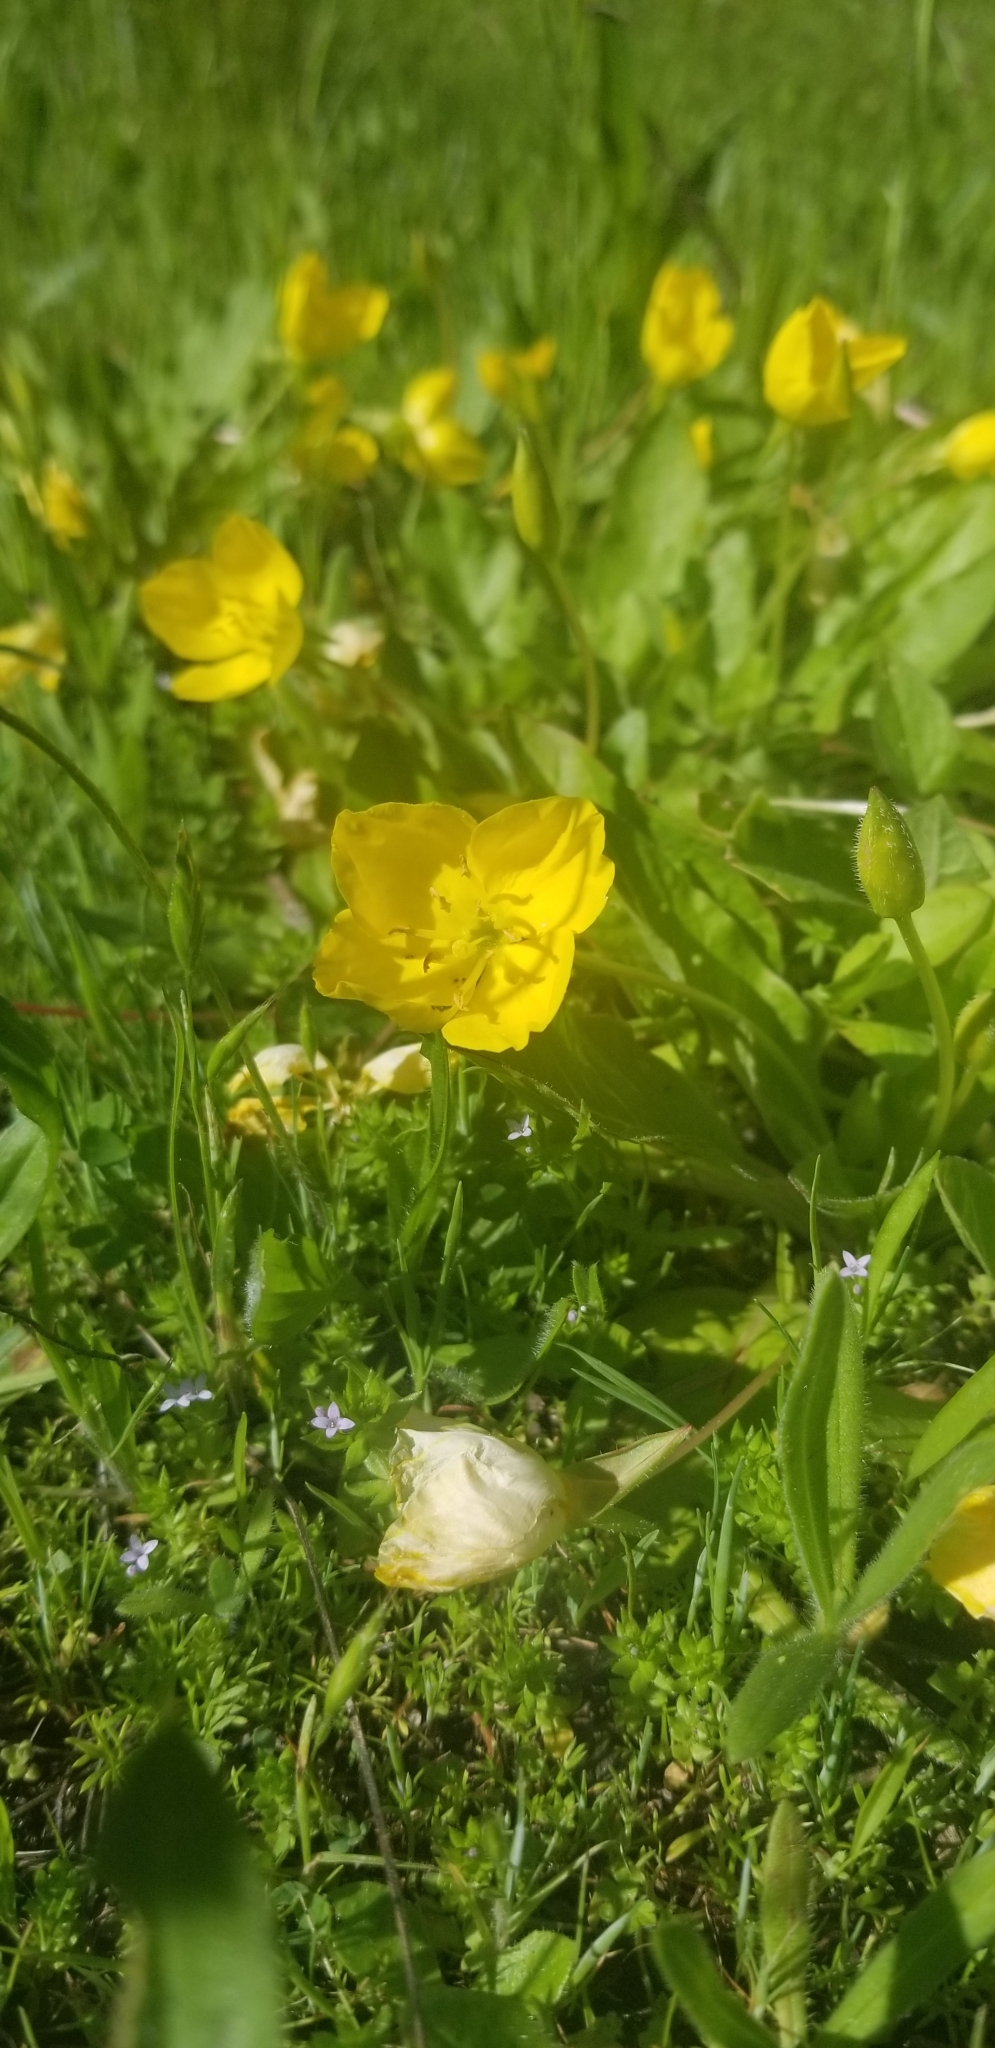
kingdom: Plantae
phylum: Tracheophyta
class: Magnoliopsida
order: Myrtales
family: Onagraceae
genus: Taraxia
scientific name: Taraxia ovata
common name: Goldeneggs
